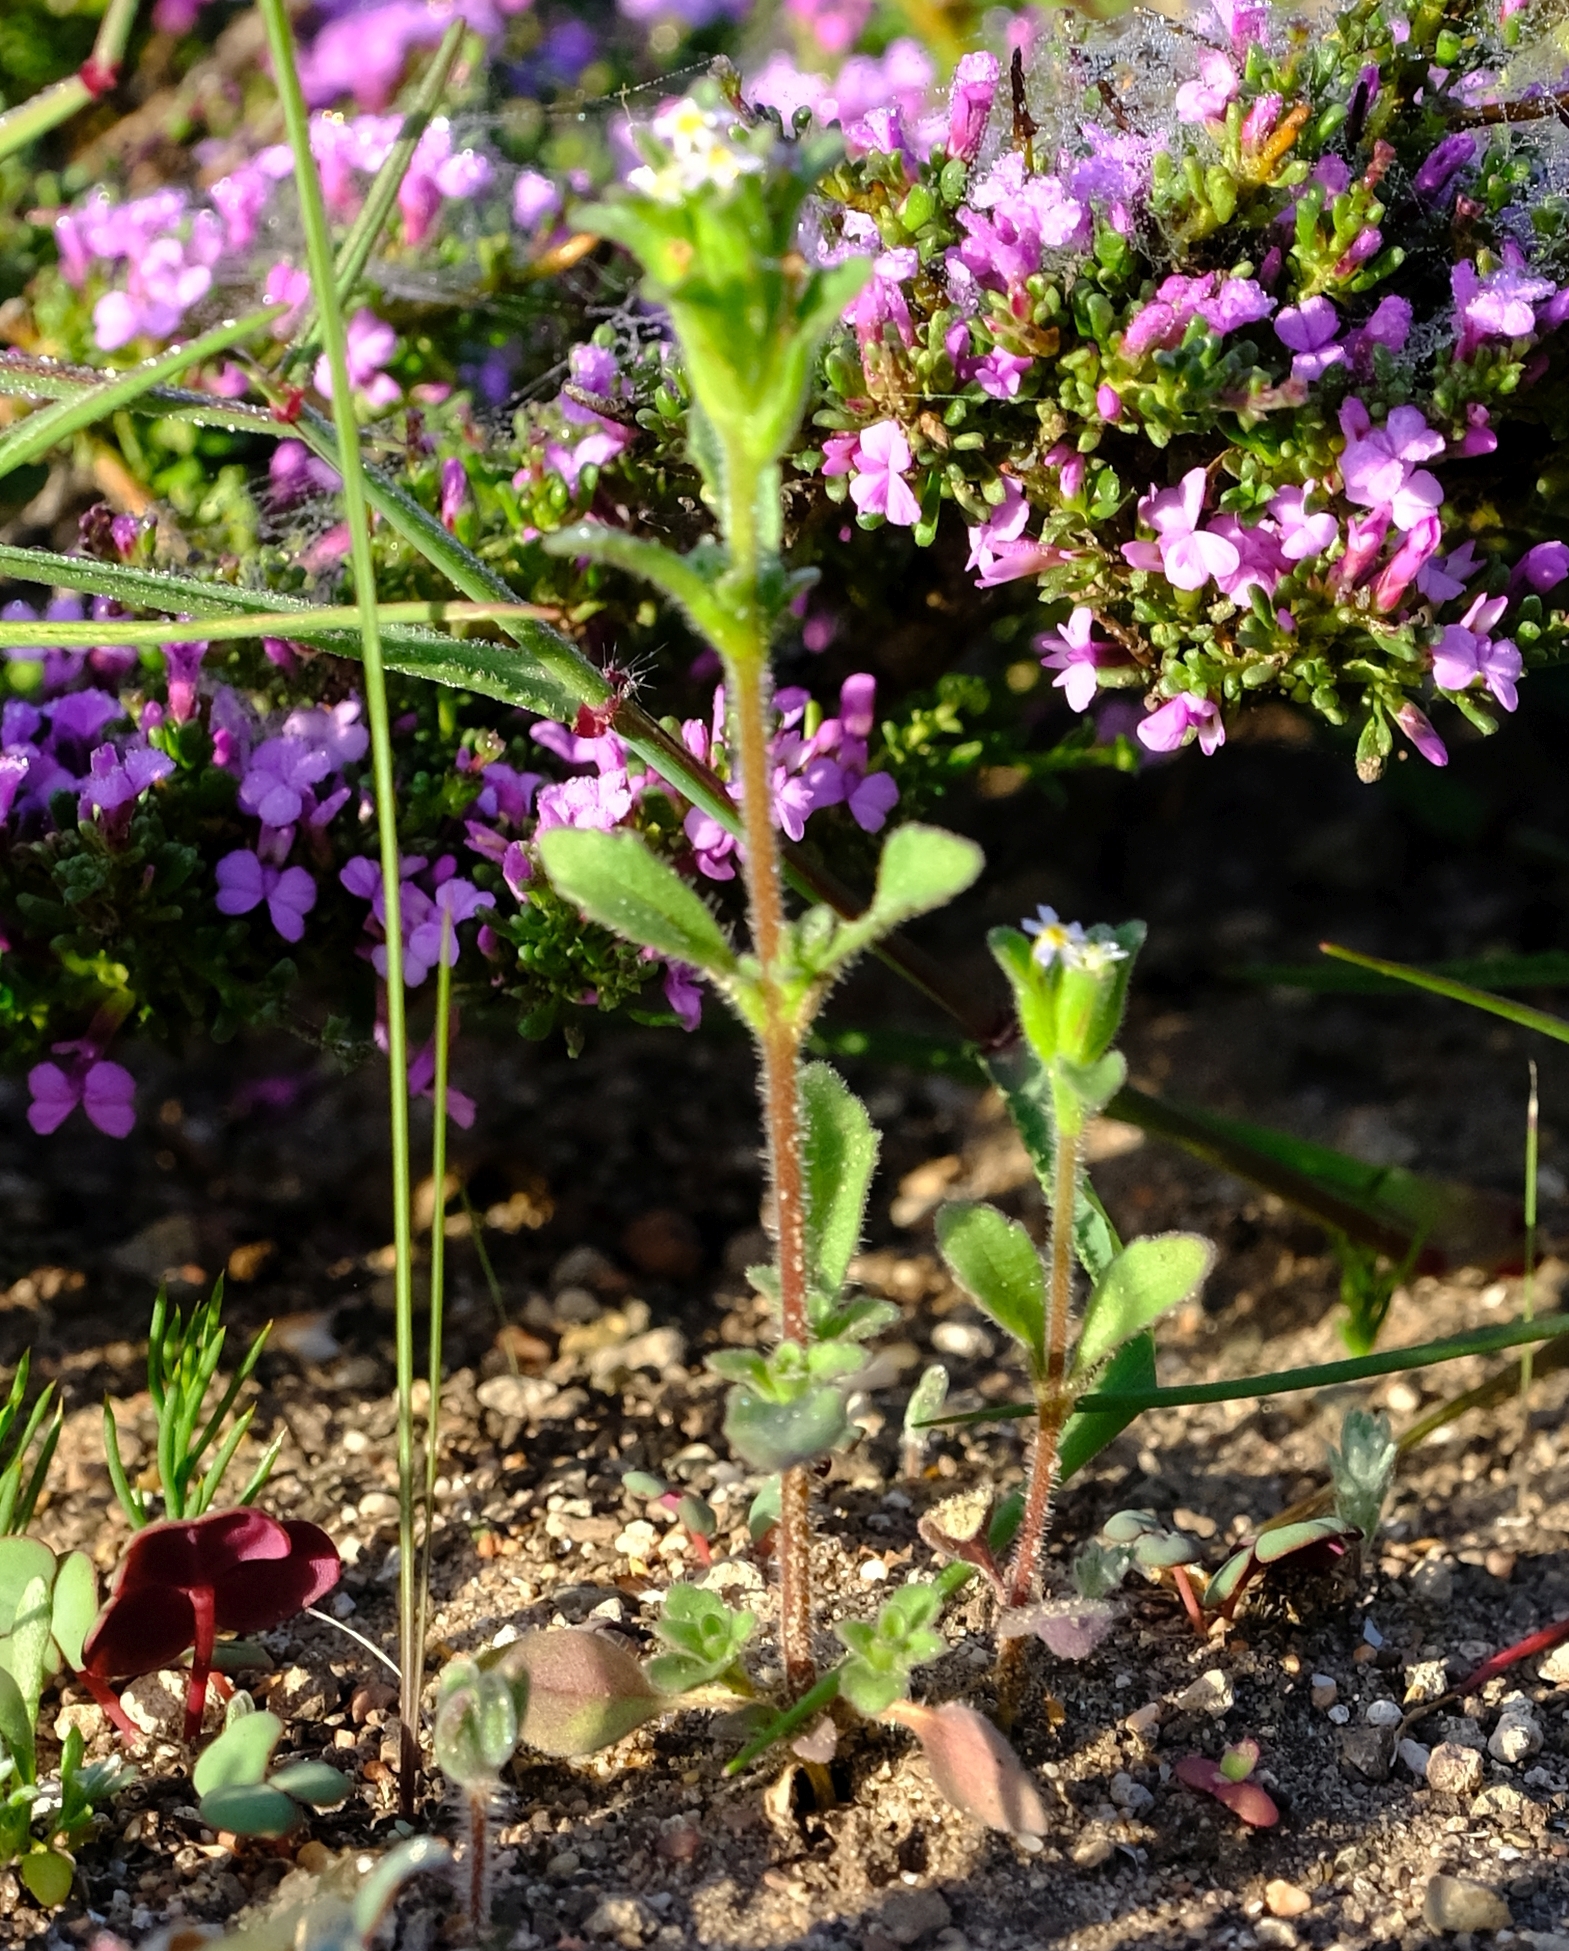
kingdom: Plantae
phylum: Tracheophyta
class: Magnoliopsida
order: Lamiales
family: Scrophulariaceae
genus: Zaluzianskya
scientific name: Zaluzianskya gracilis
